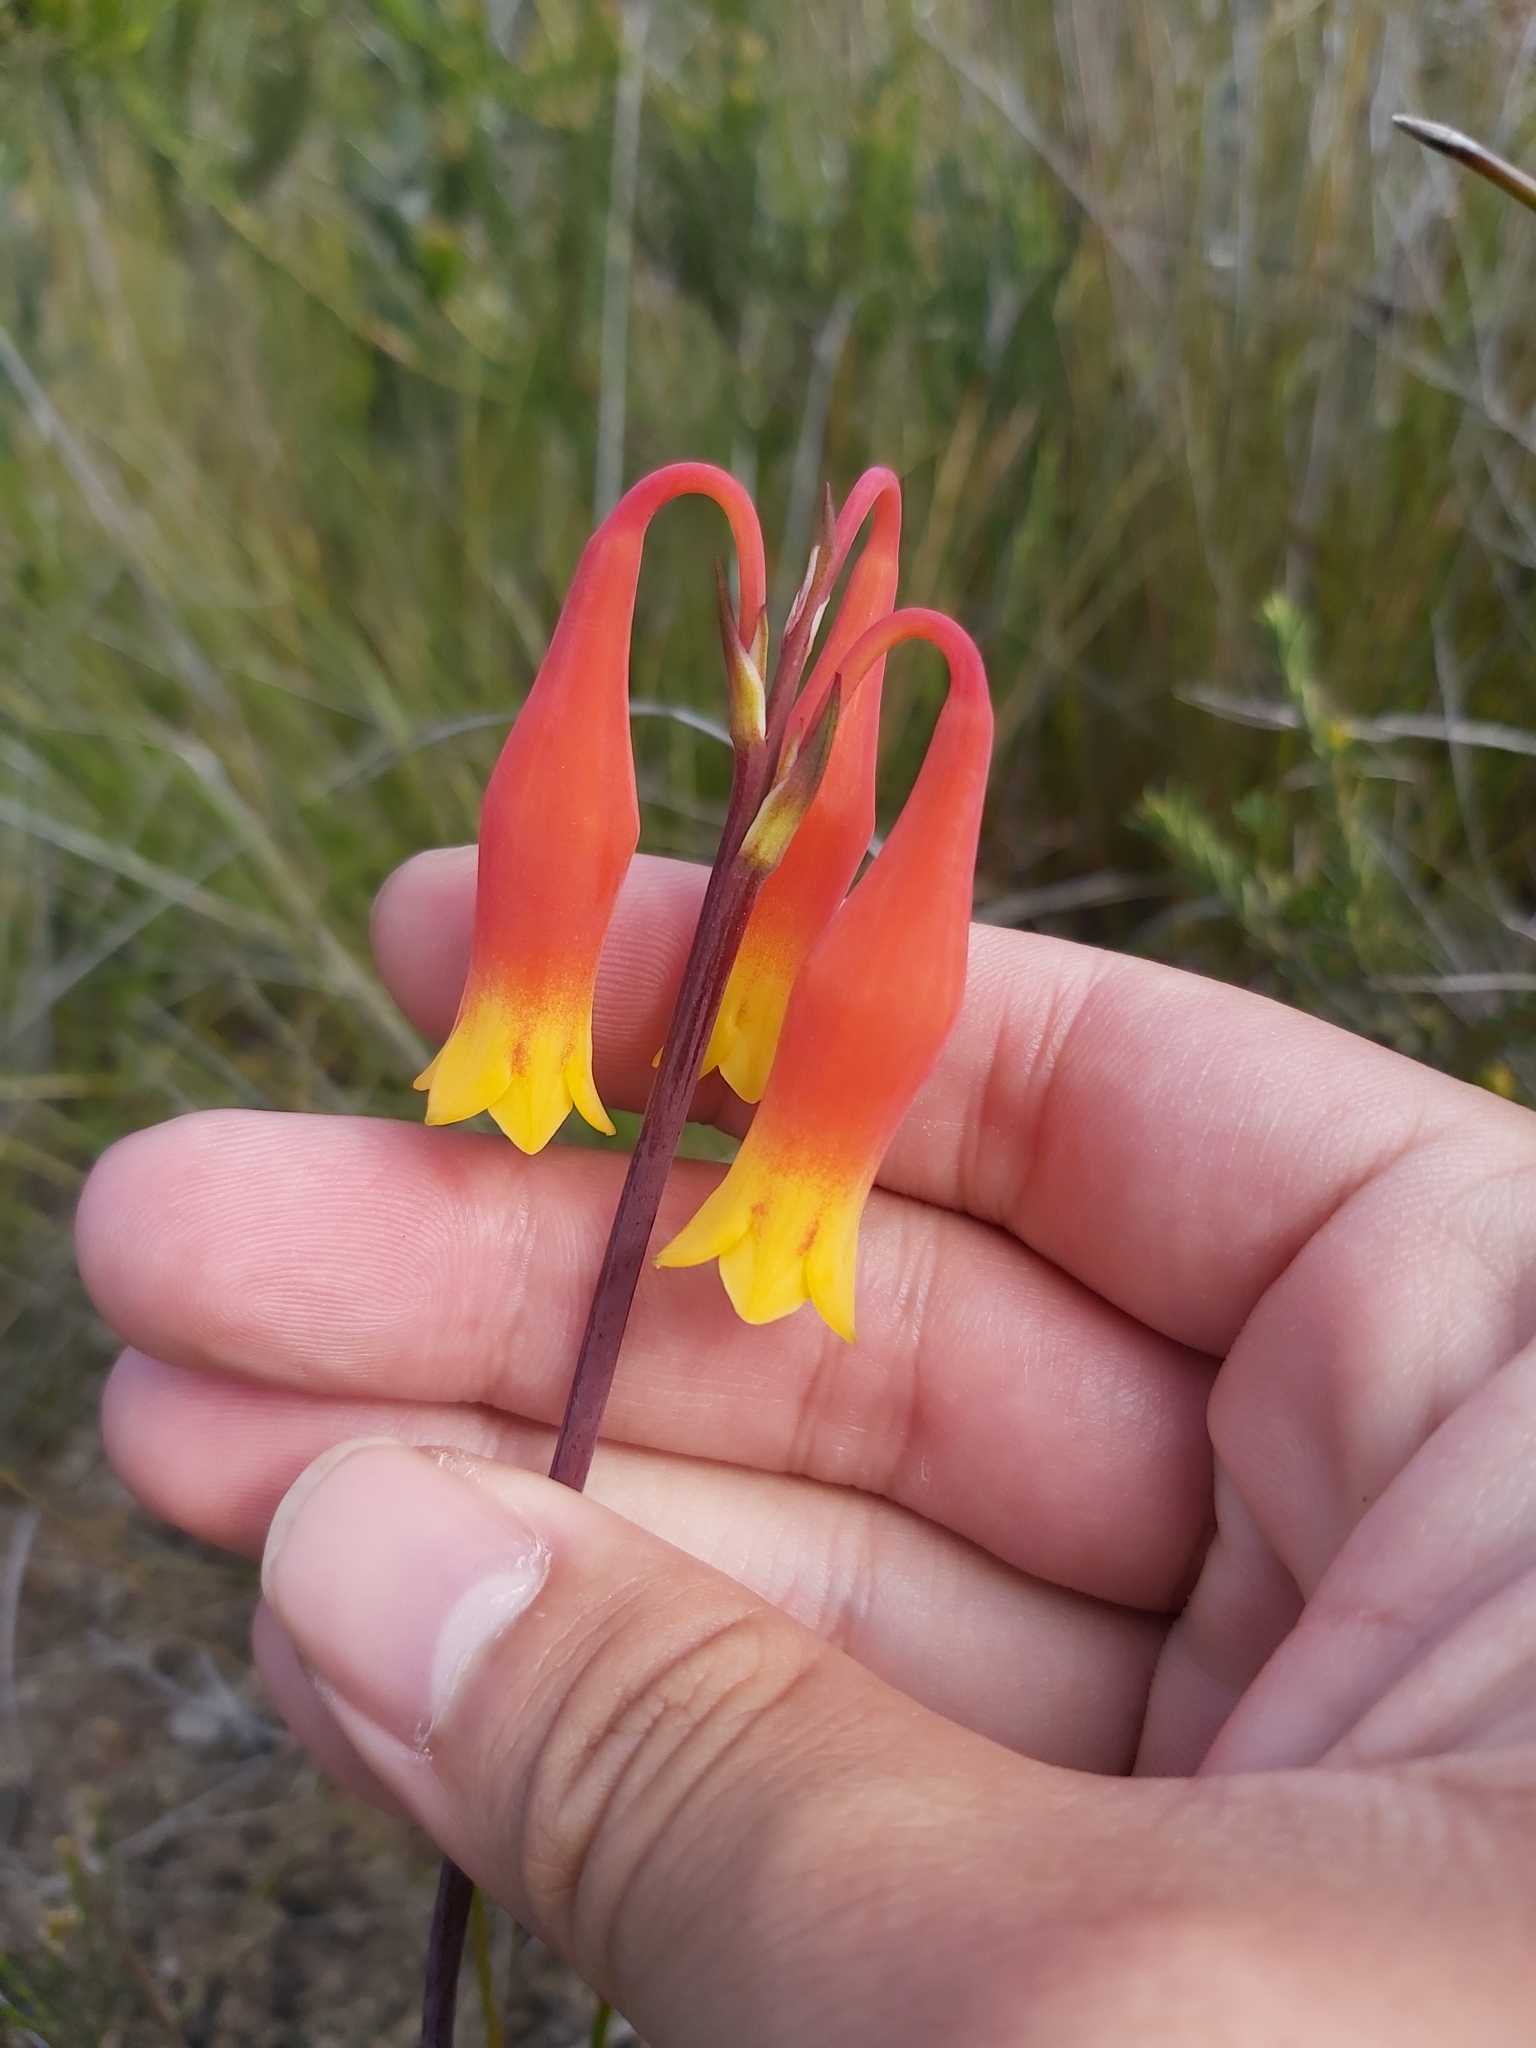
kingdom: Plantae
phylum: Tracheophyta
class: Liliopsida
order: Asparagales
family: Blandfordiaceae
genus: Blandfordia
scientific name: Blandfordia nobilis
